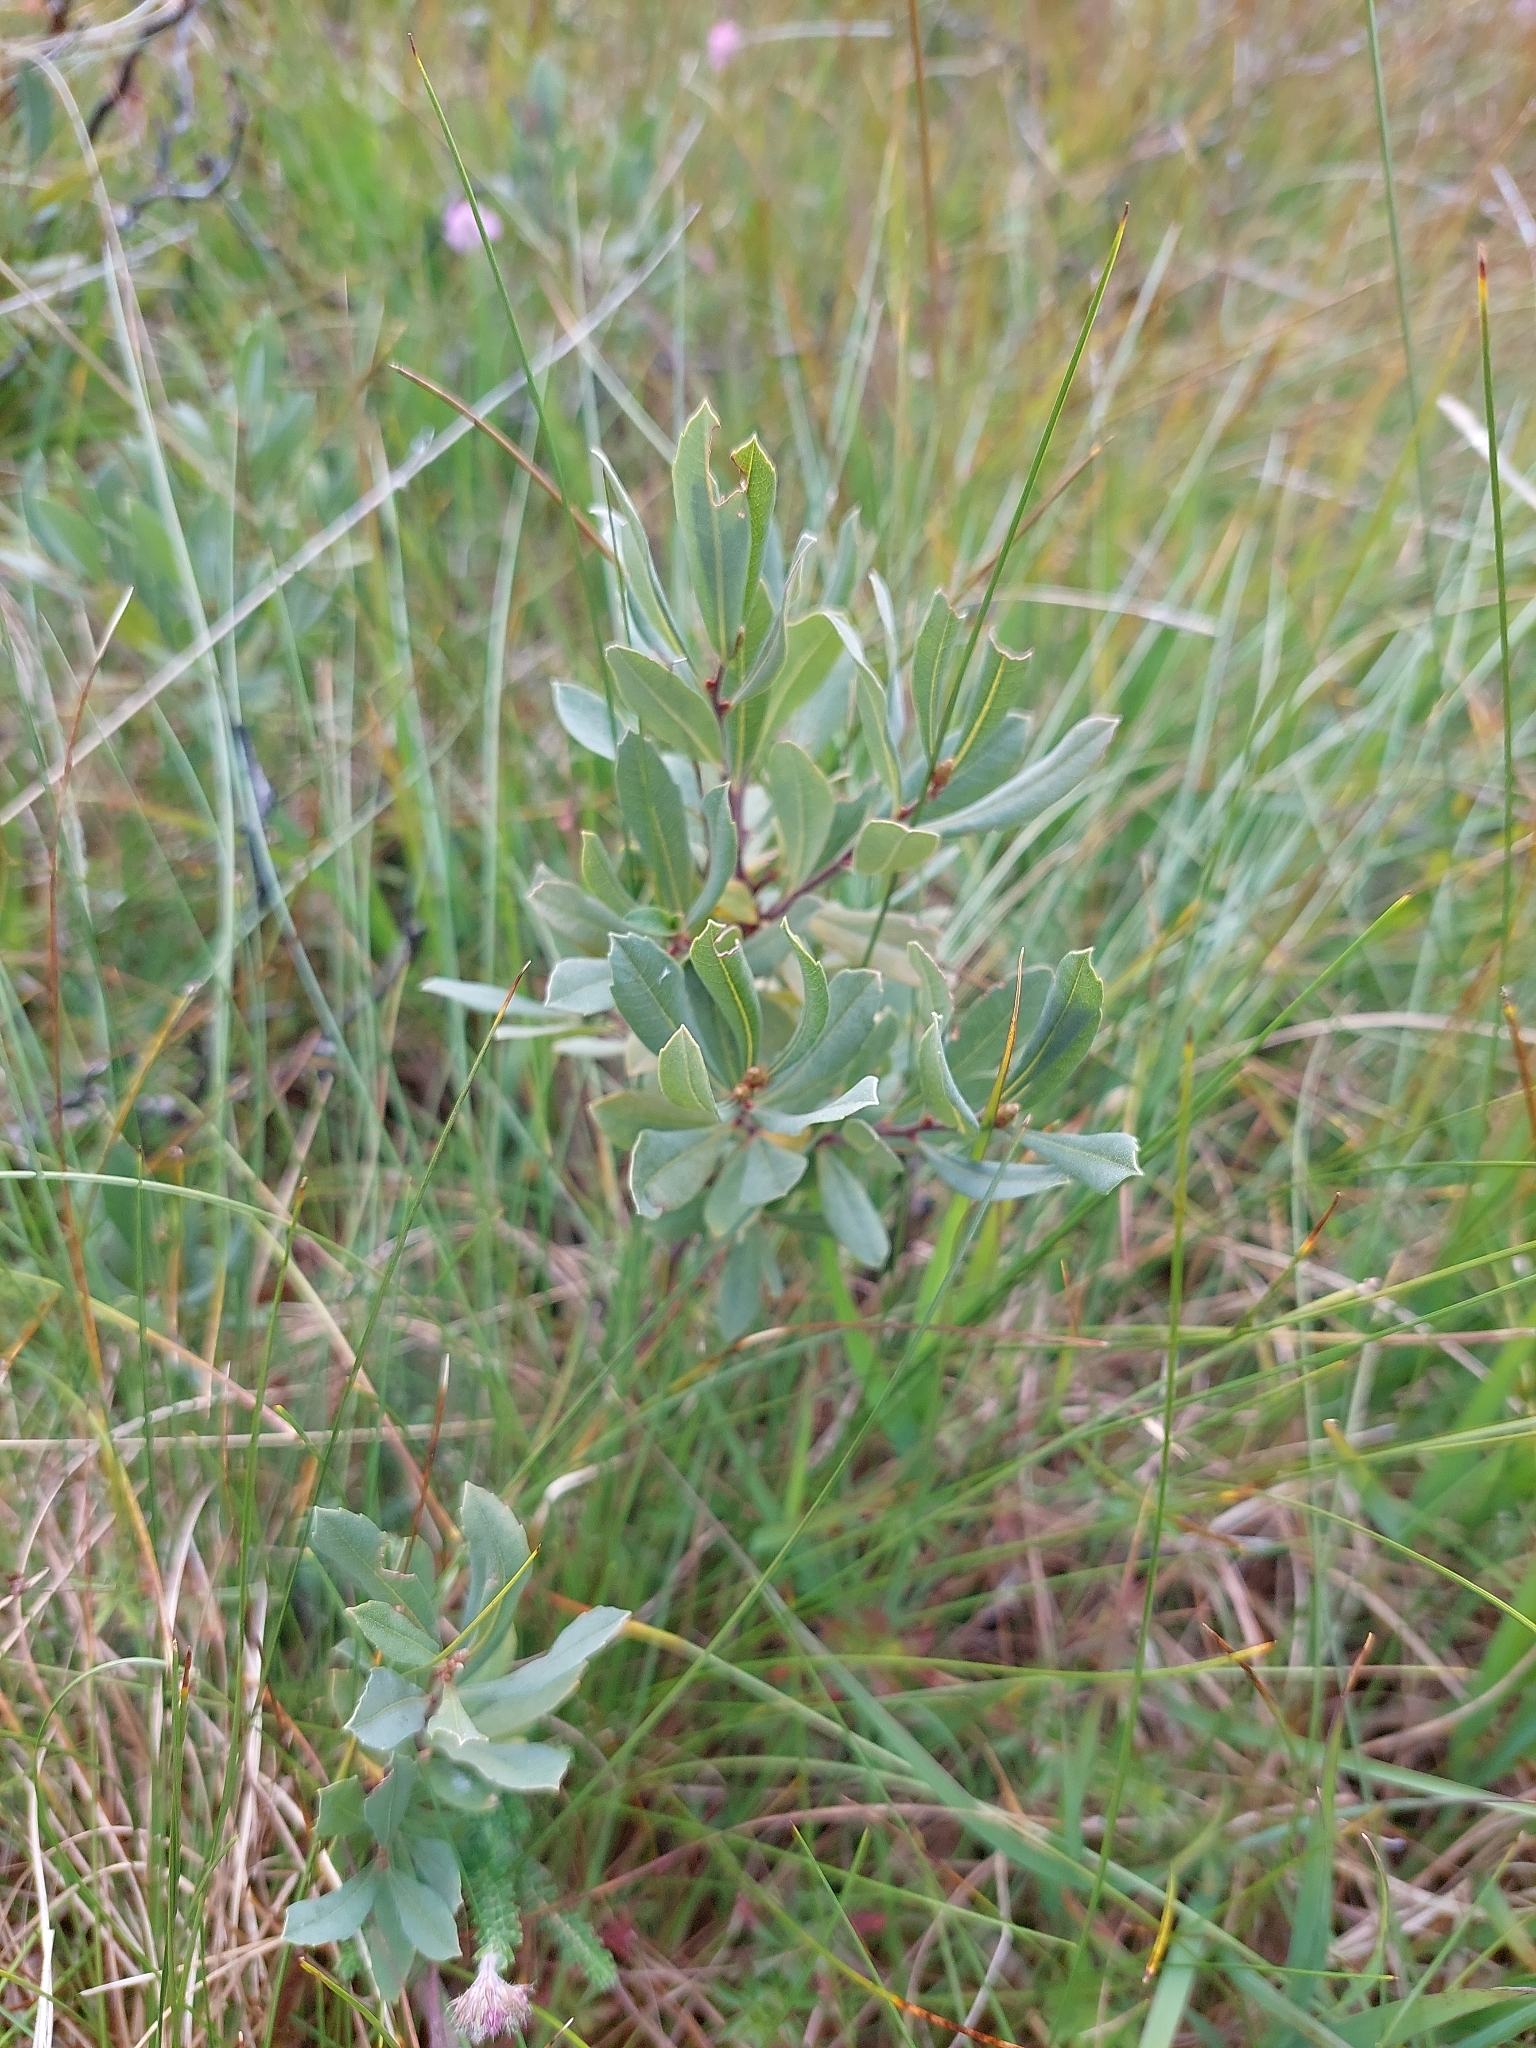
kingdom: Plantae
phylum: Tracheophyta
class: Magnoliopsida
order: Fagales
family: Myricaceae
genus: Myrica
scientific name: Myrica gale
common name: Sweet gale
